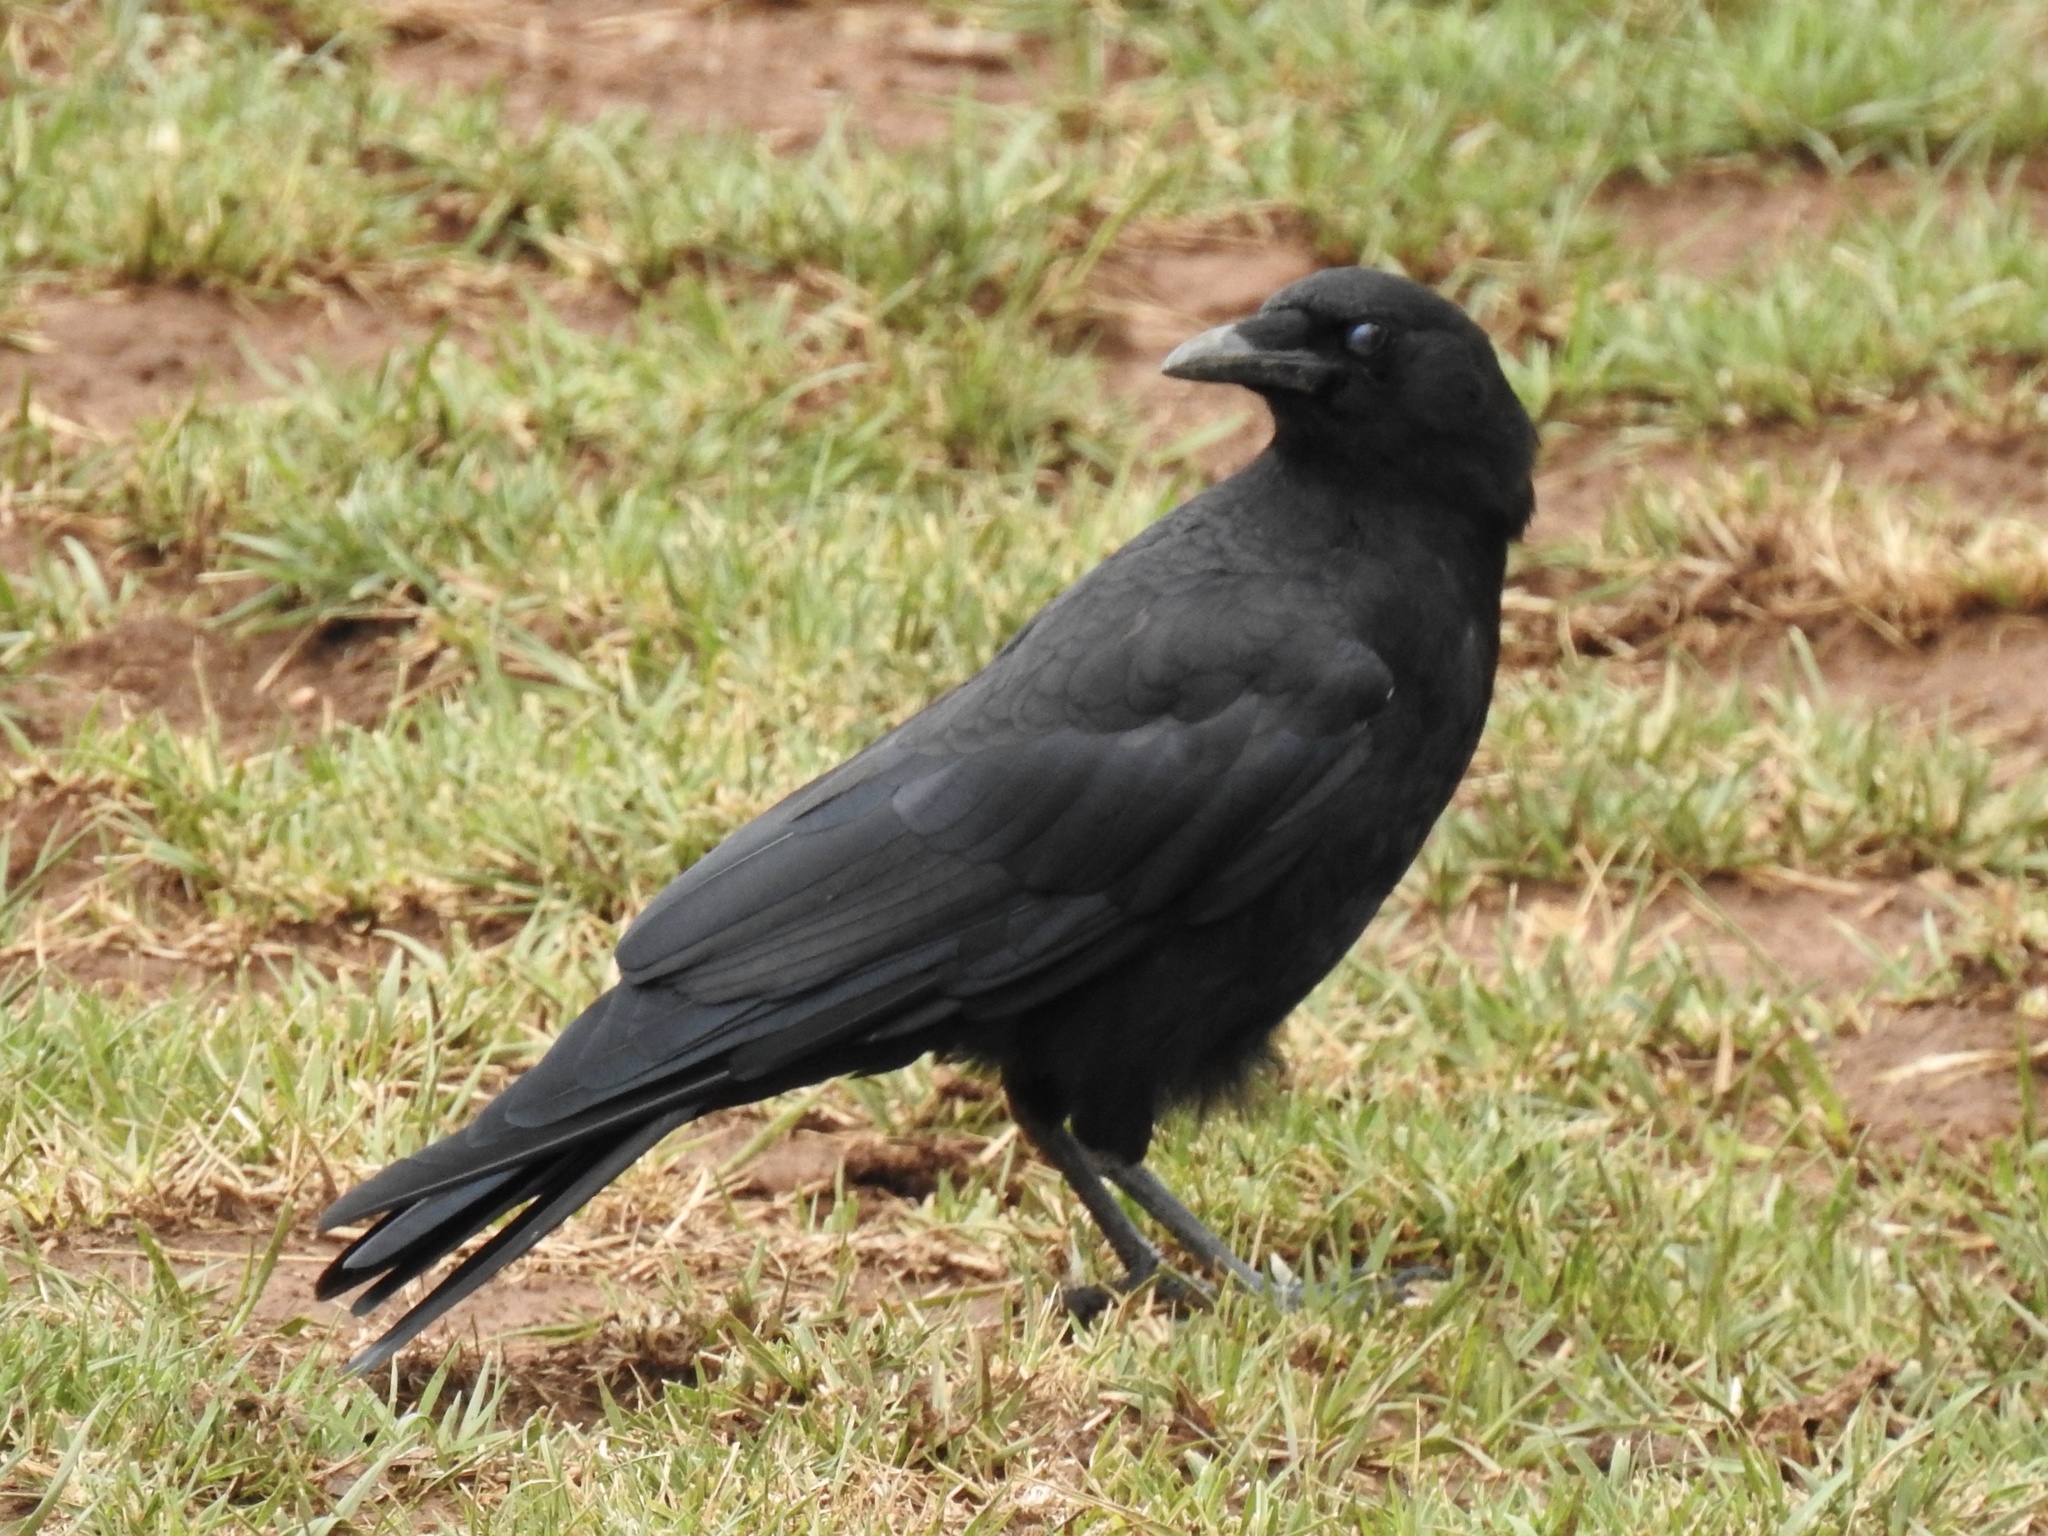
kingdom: Animalia
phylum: Chordata
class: Aves
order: Passeriformes
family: Corvidae
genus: Corvus
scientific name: Corvus brachyrhynchos
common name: American crow
